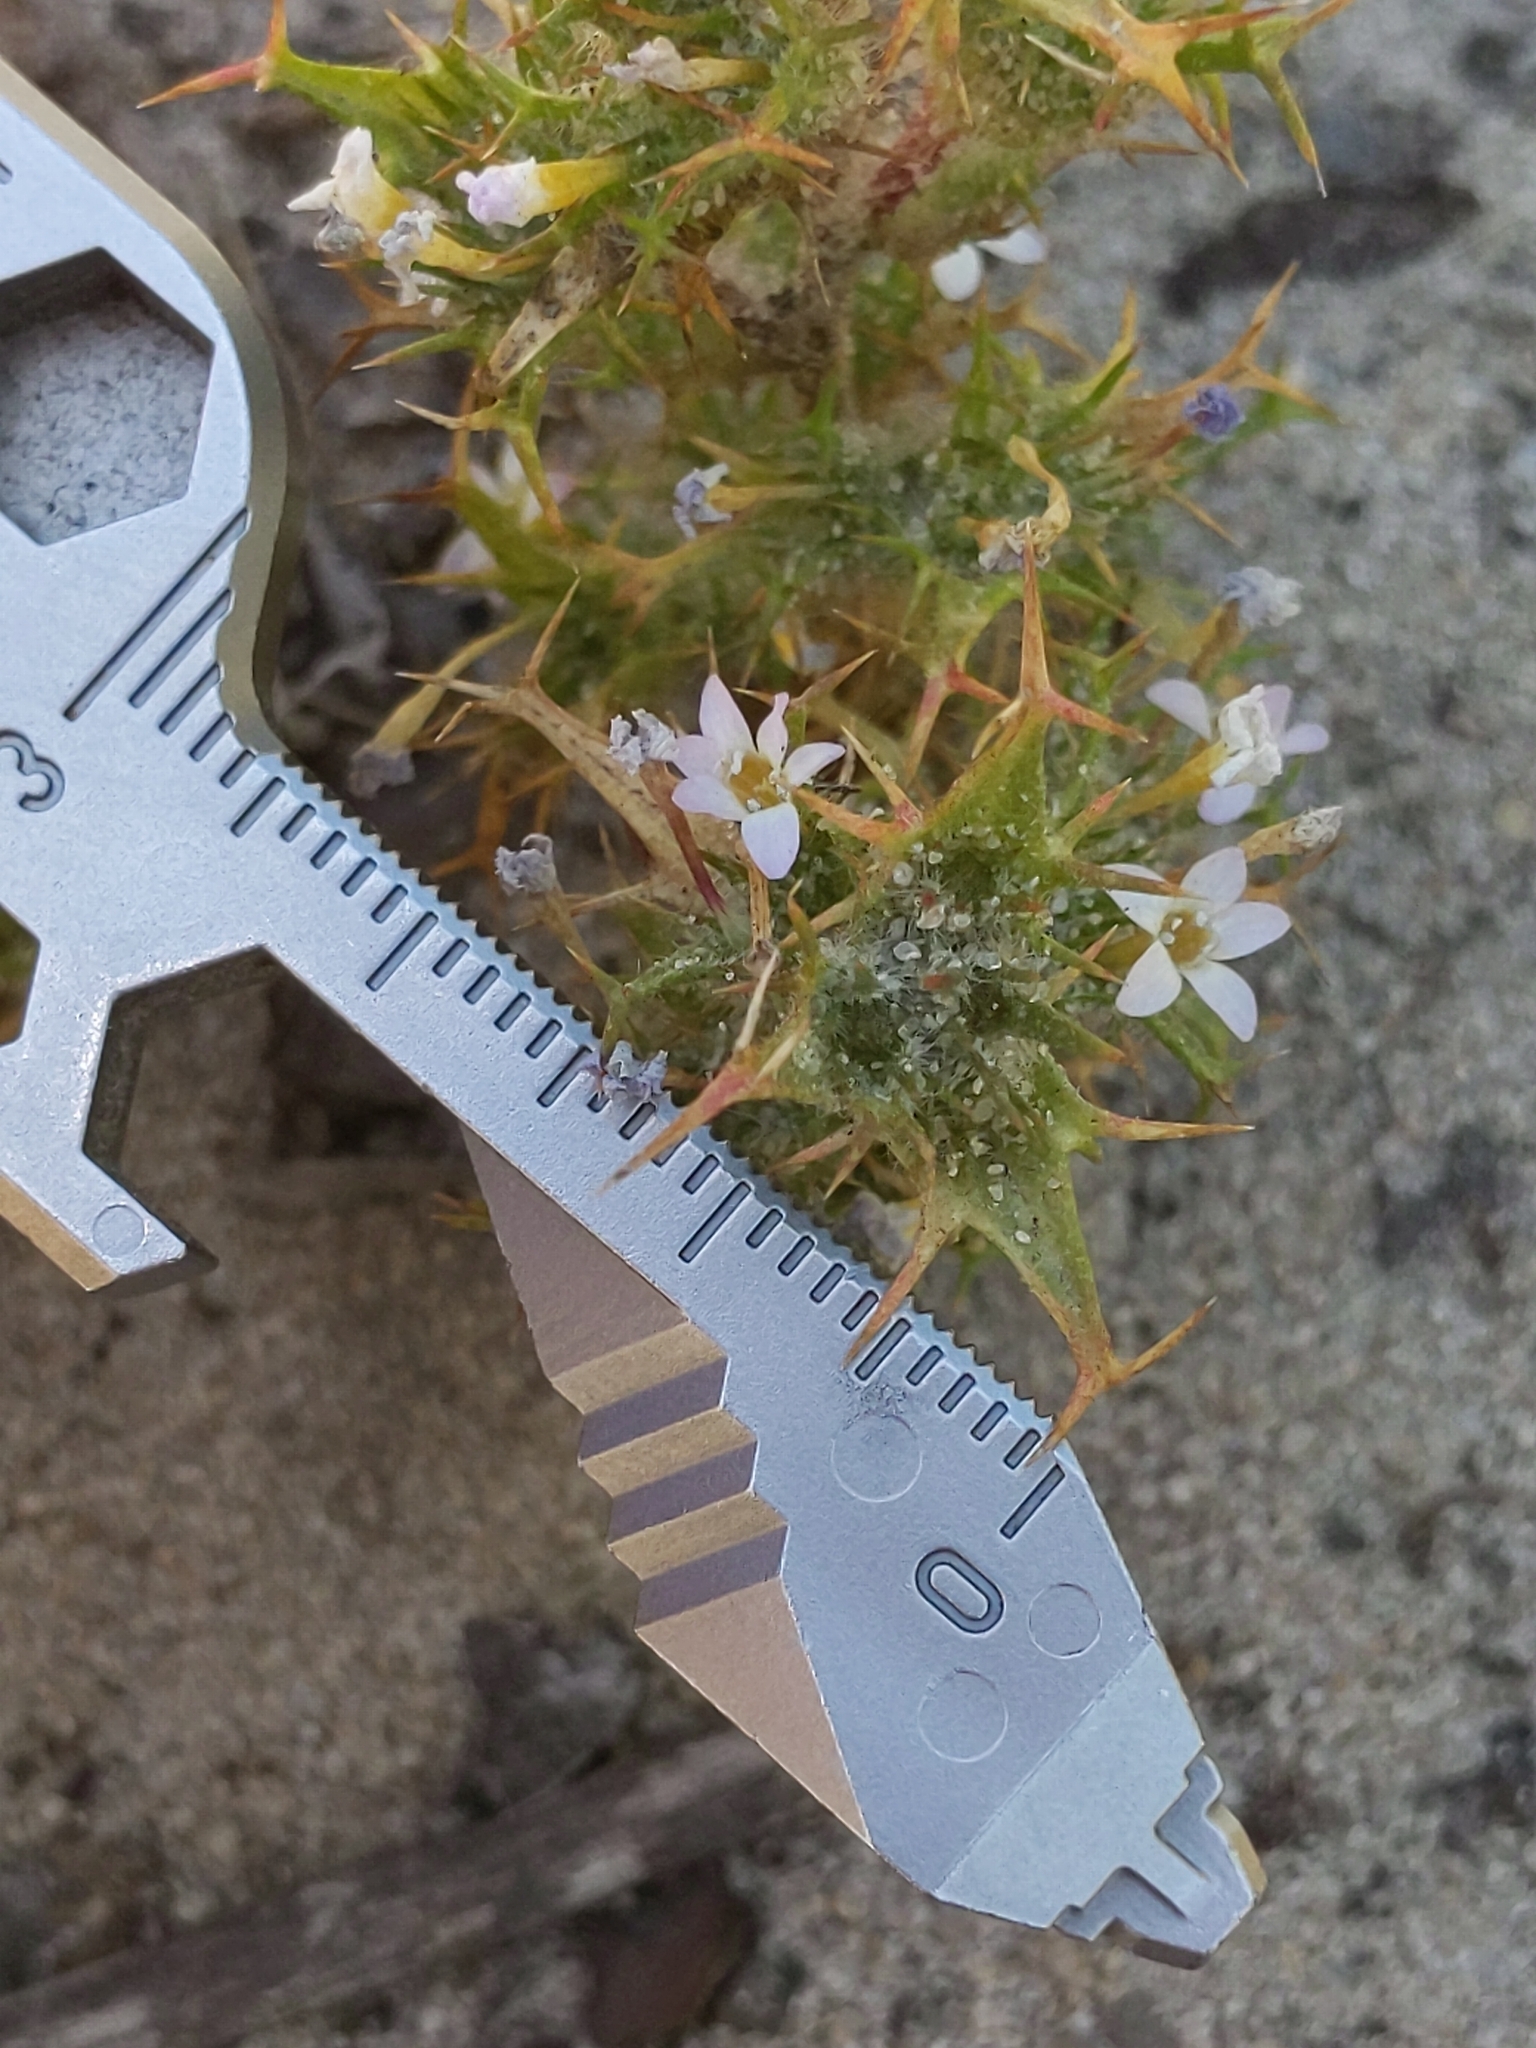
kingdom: Plantae
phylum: Tracheophyta
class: Magnoliopsida
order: Ericales
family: Polemoniaceae
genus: Navarretia
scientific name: Navarretia hamata
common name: Hooked navarretia
